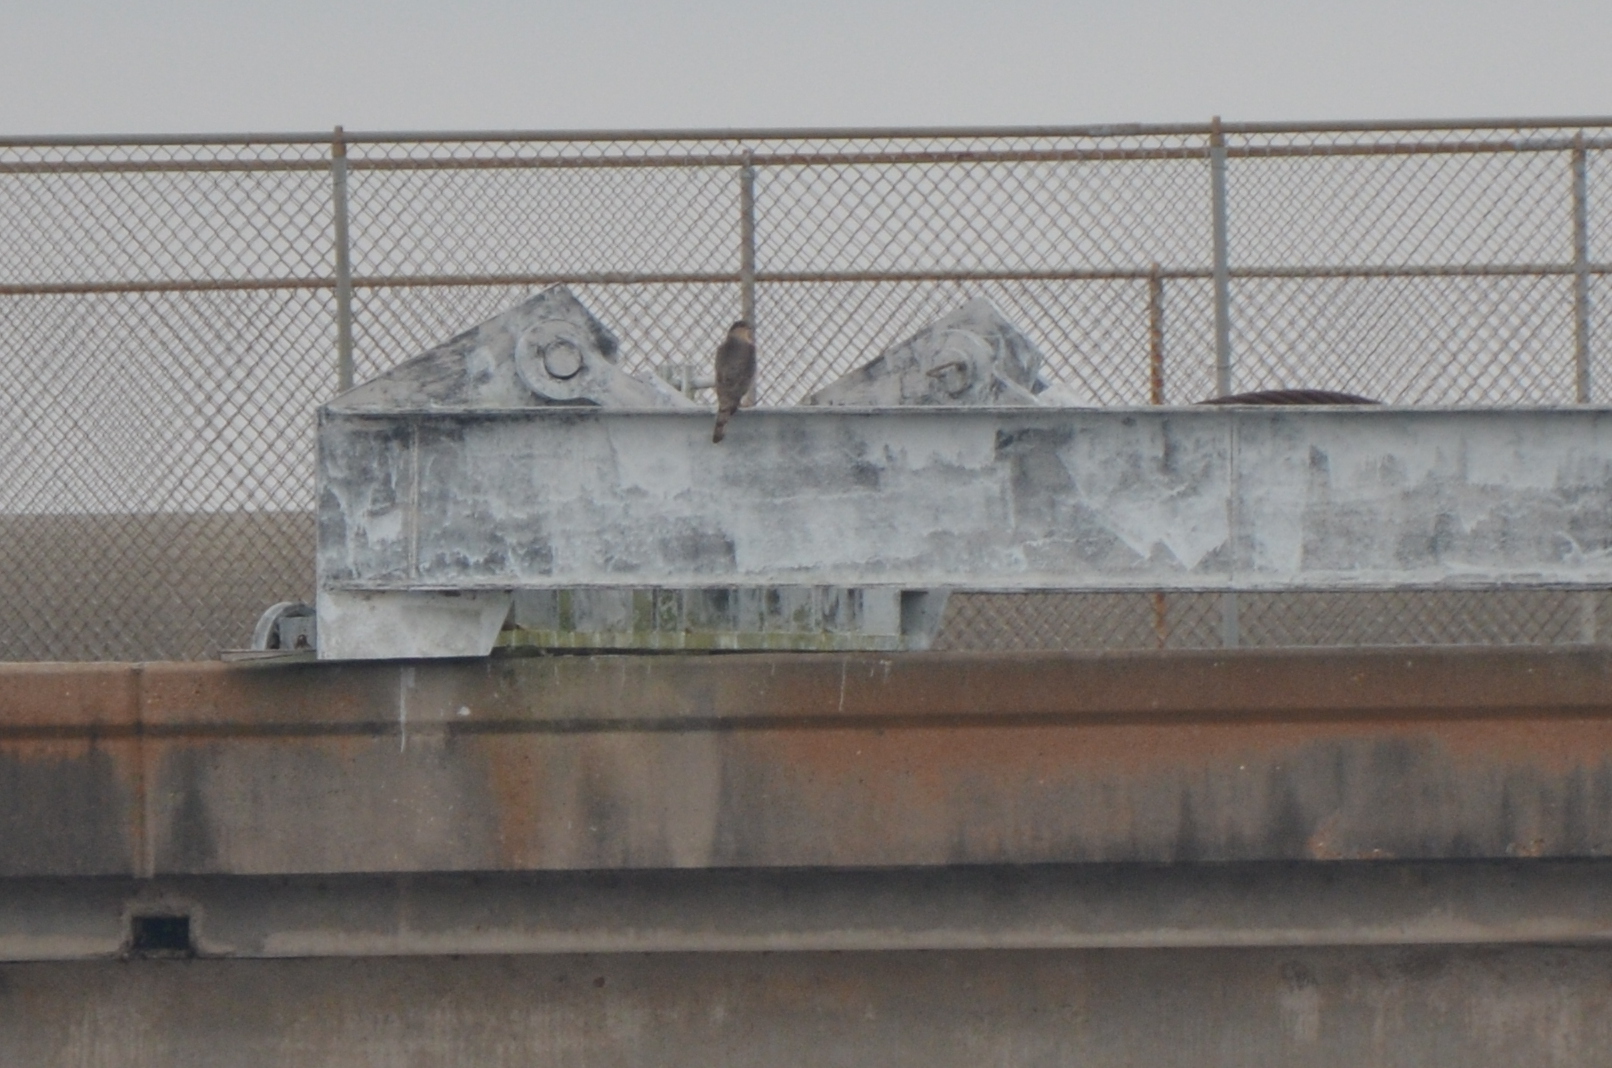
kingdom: Animalia
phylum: Chordata
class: Aves
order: Accipitriformes
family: Accipitridae
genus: Accipiter
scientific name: Accipiter cooperii
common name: Cooper's hawk
